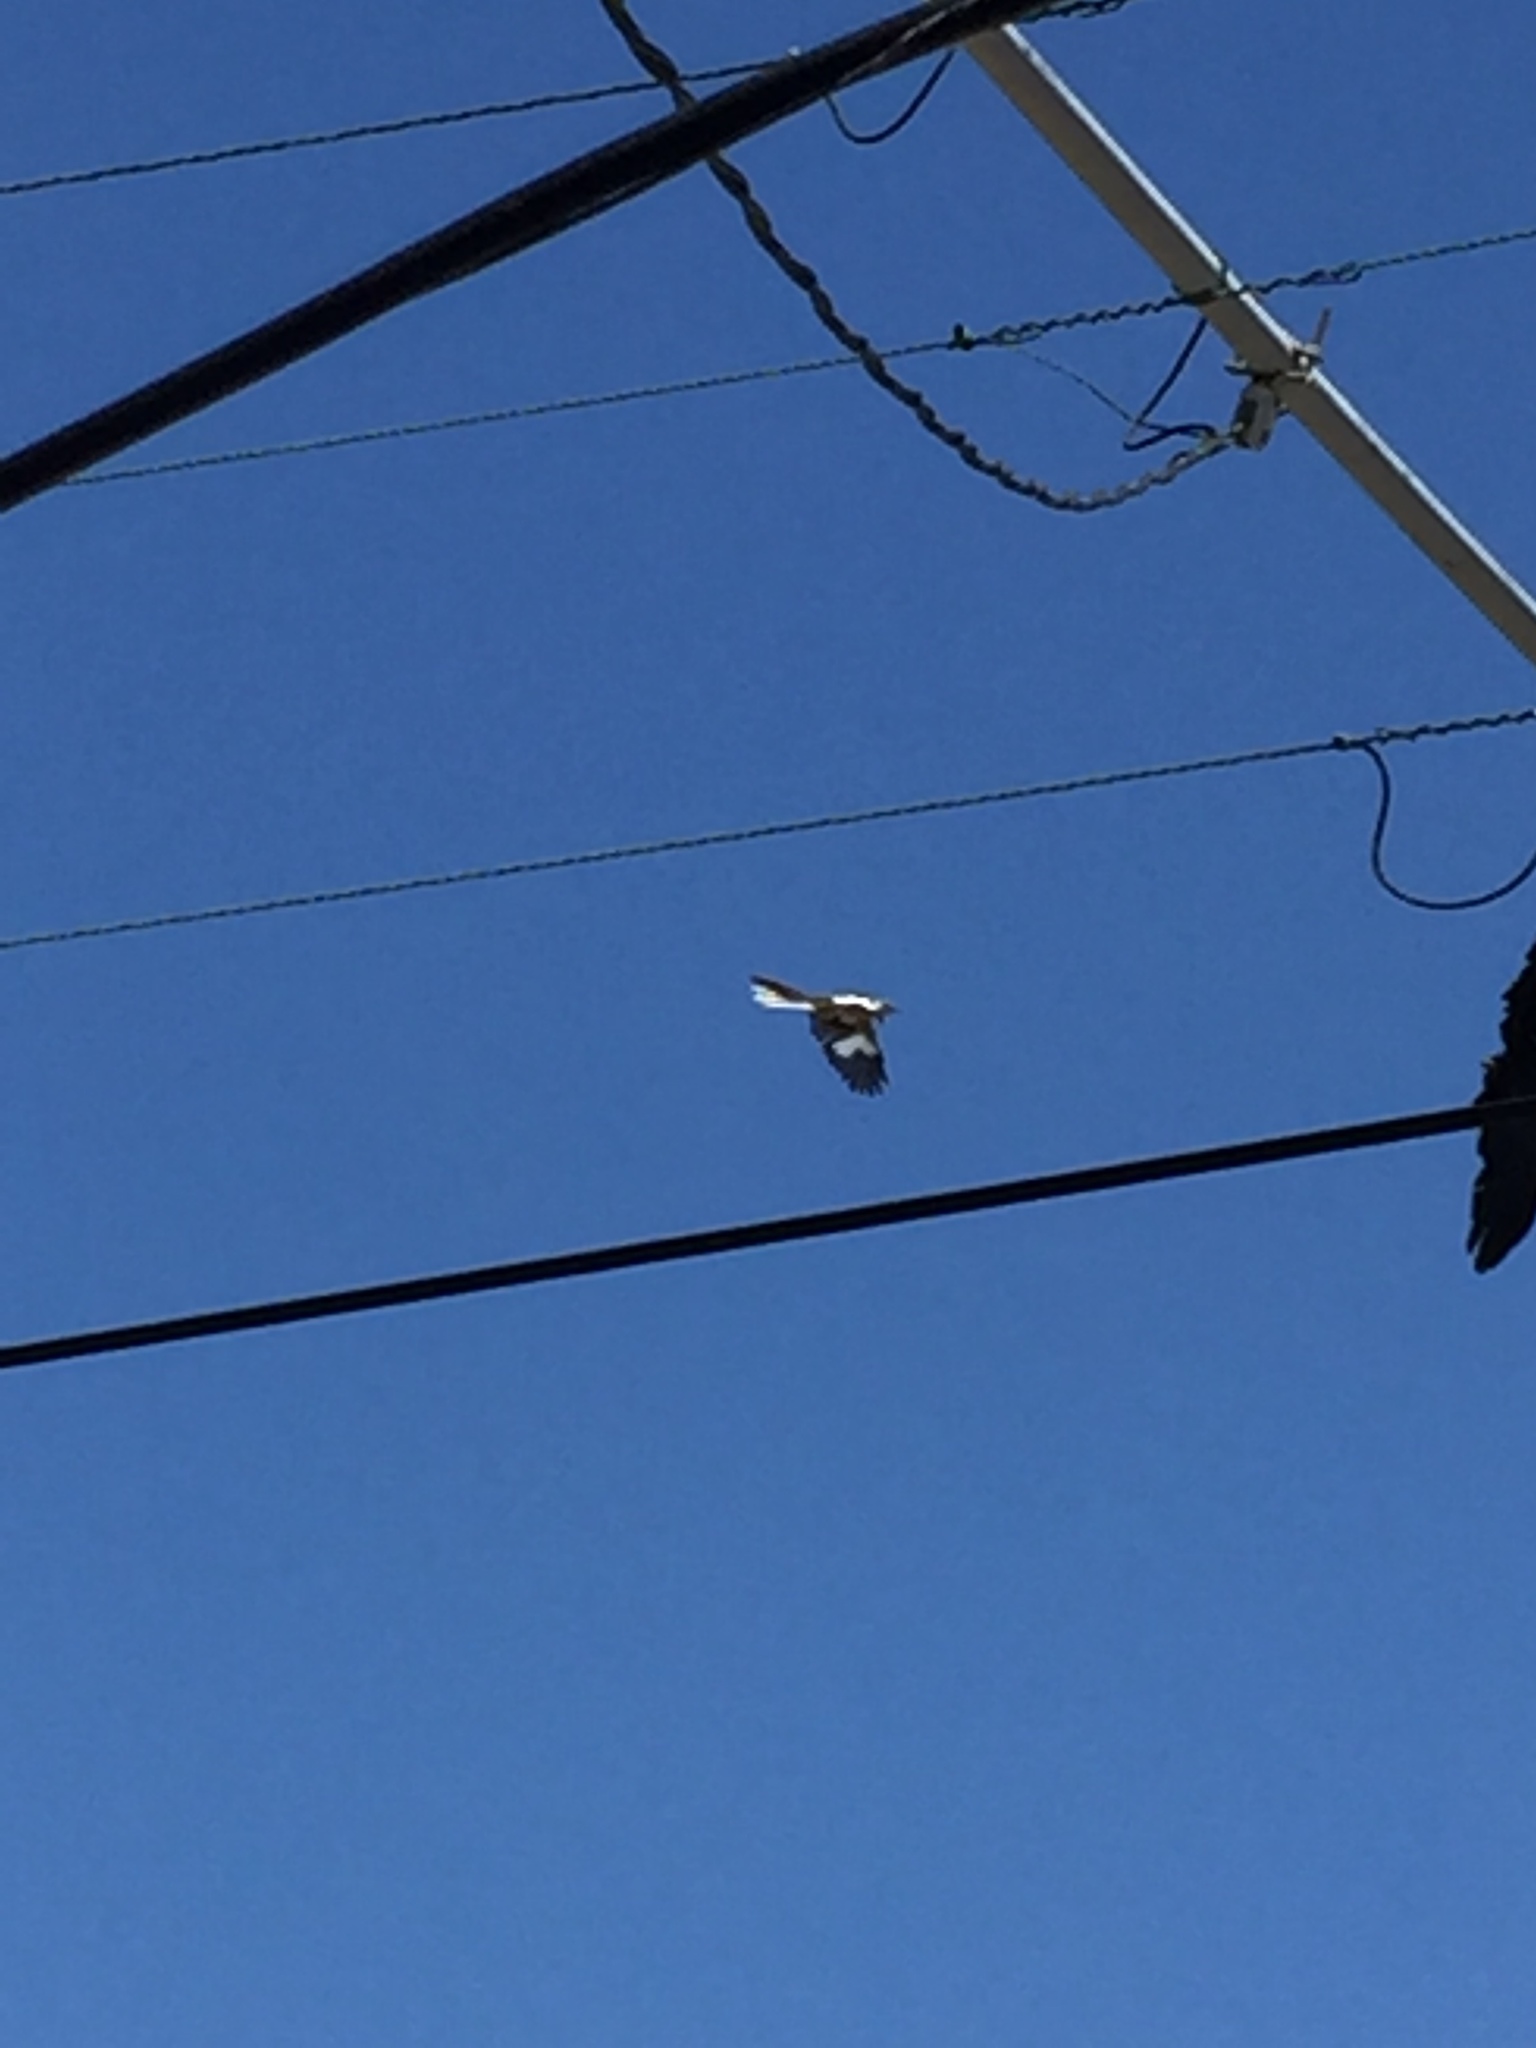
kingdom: Animalia
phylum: Chordata
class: Aves
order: Passeriformes
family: Mimidae
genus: Mimus
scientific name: Mimus polyglottos
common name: Northern mockingbird
